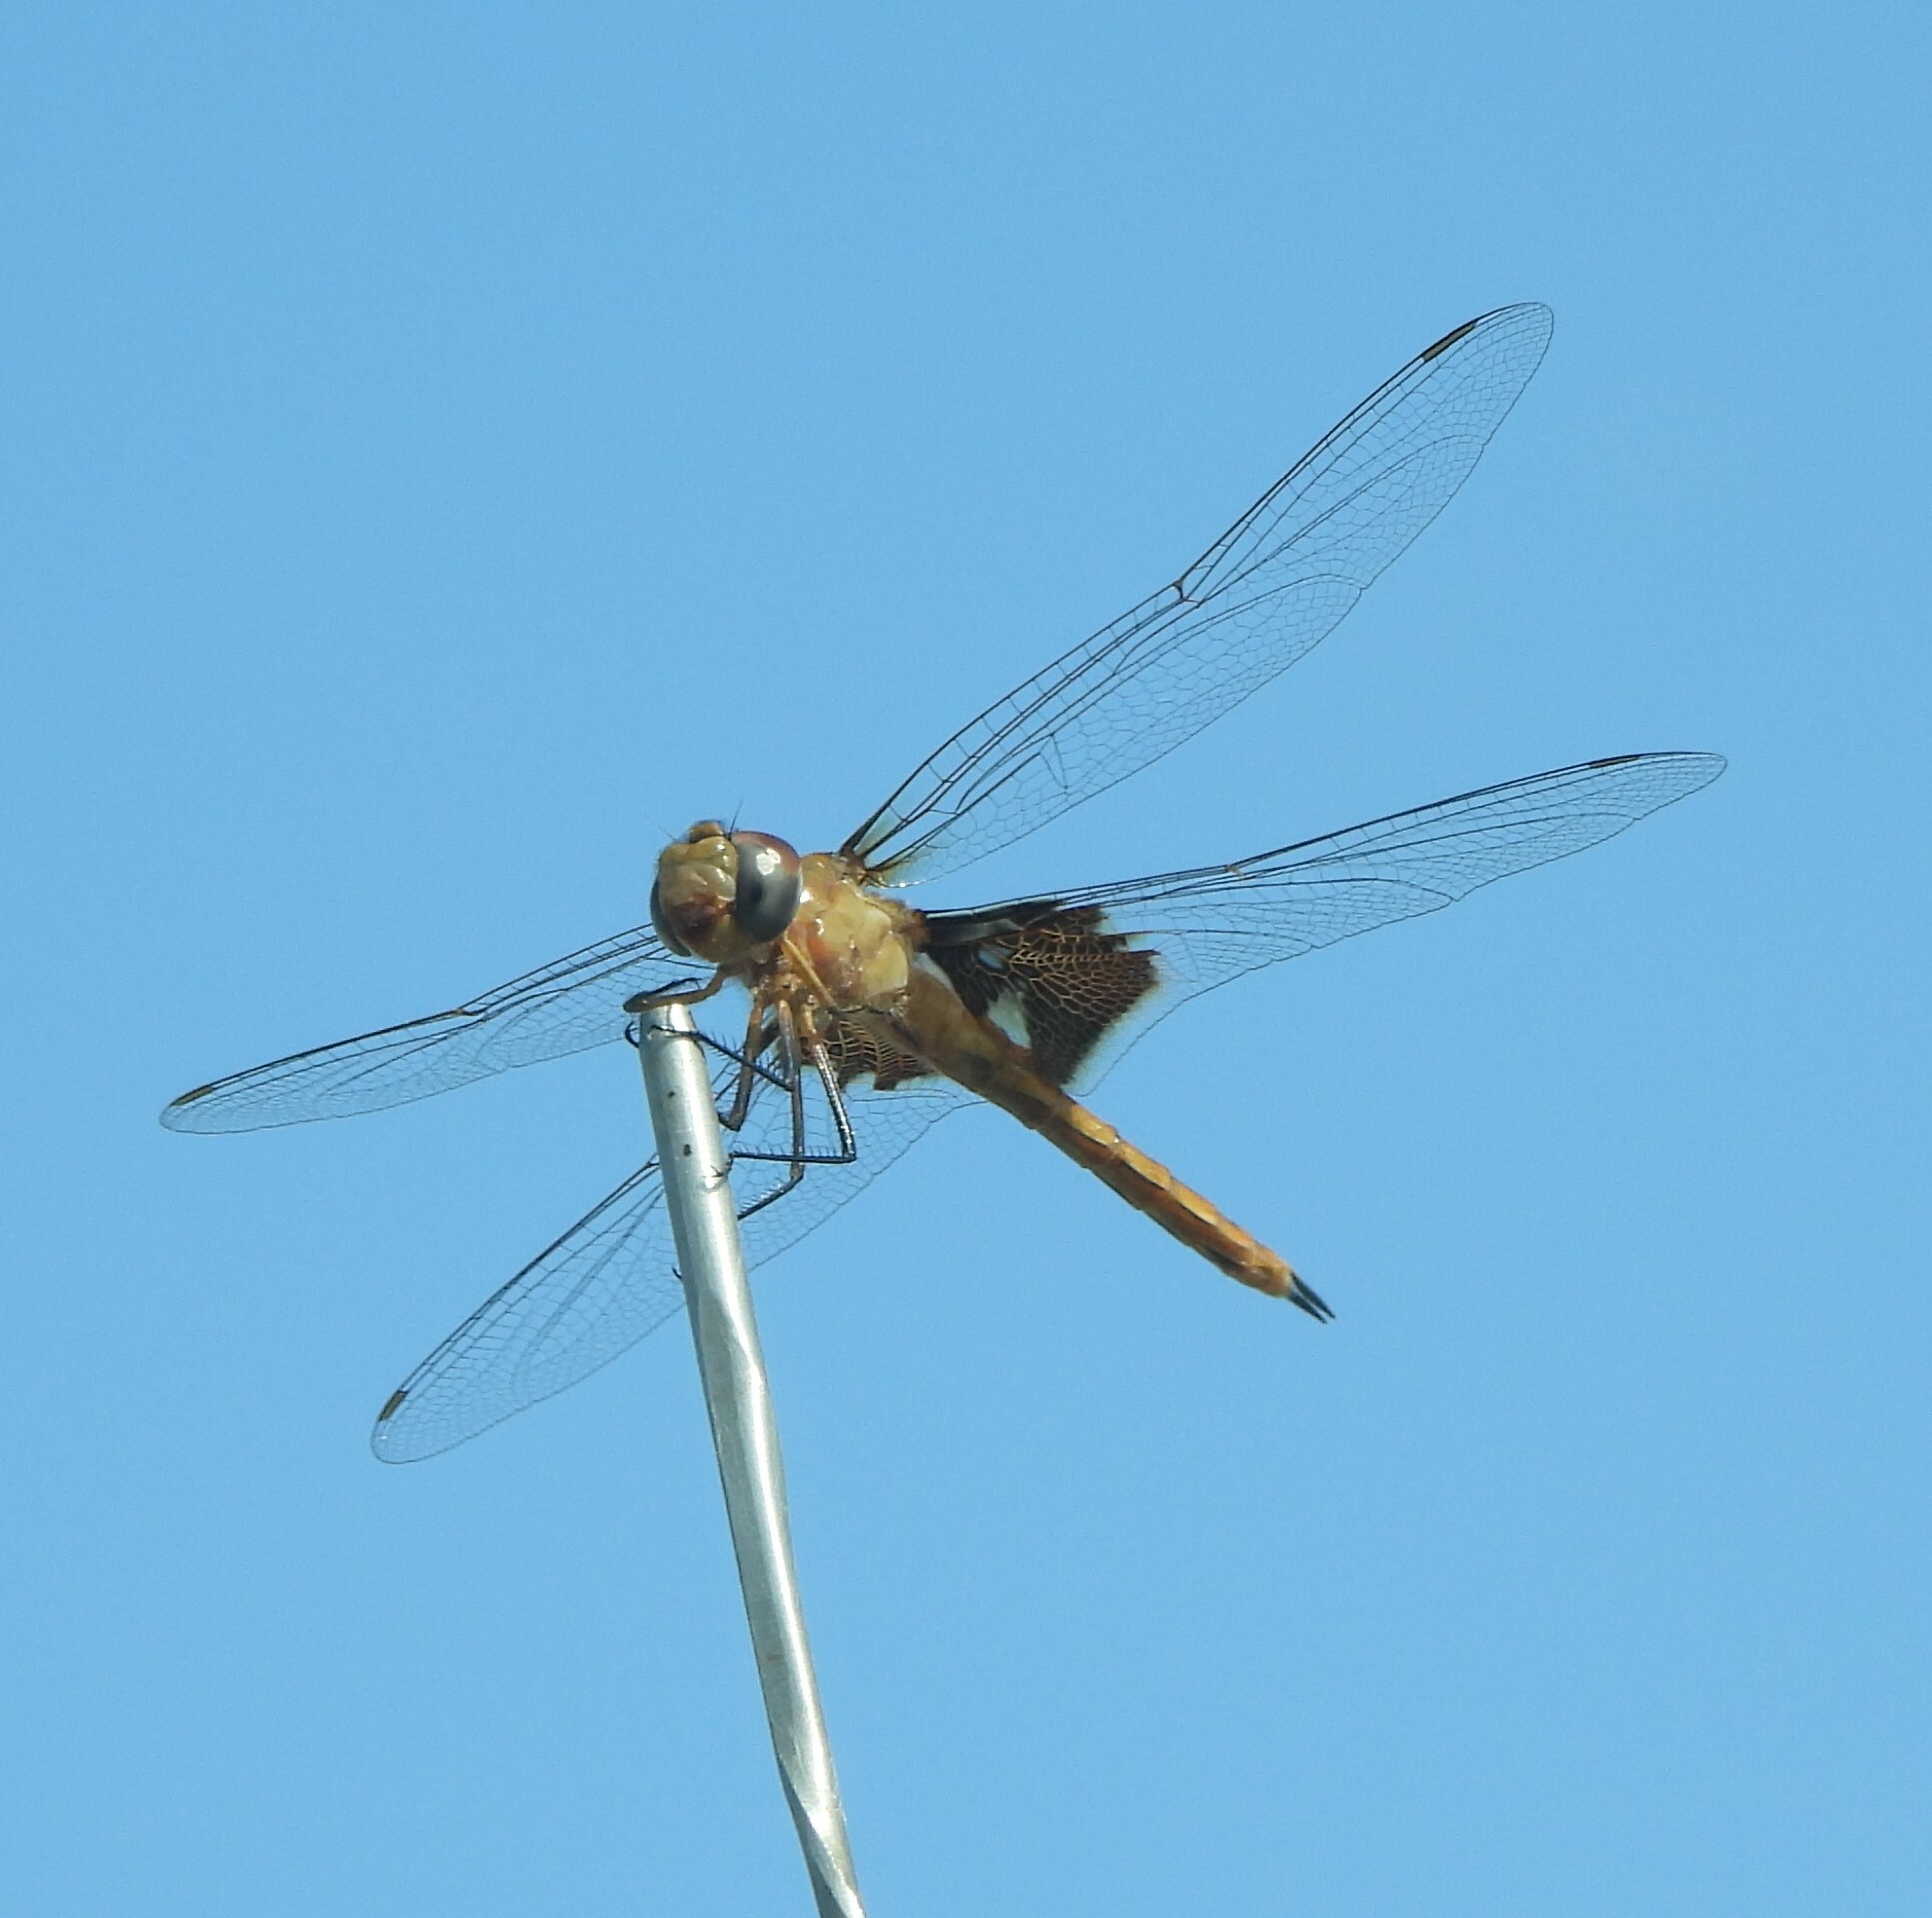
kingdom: Animalia
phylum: Arthropoda
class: Insecta
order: Odonata
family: Libellulidae
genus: Tramea
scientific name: Tramea onusta
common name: Red saddlebags
